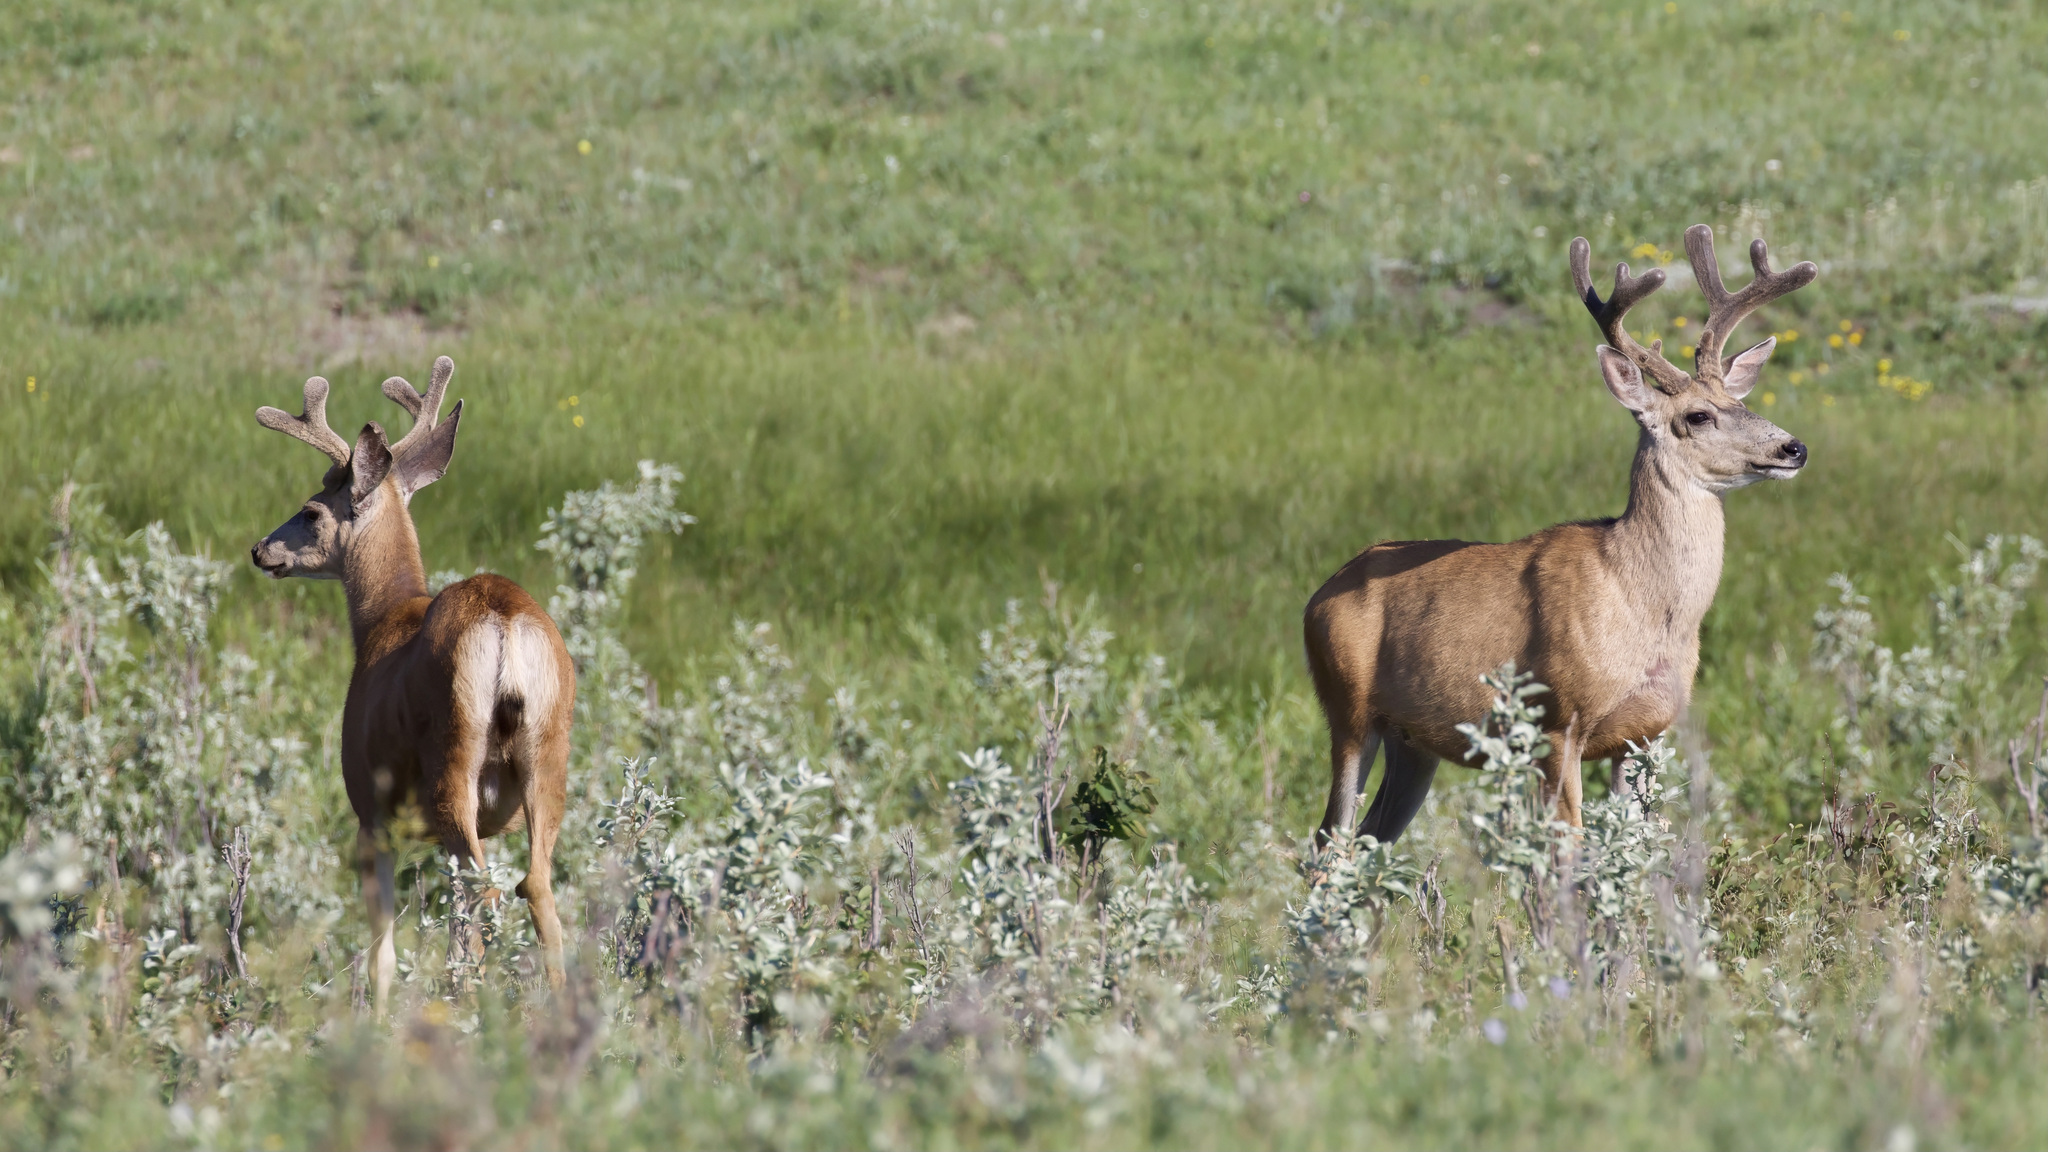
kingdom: Animalia
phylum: Chordata
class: Mammalia
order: Artiodactyla
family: Cervidae
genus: Odocoileus
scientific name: Odocoileus hemionus
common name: Mule deer
